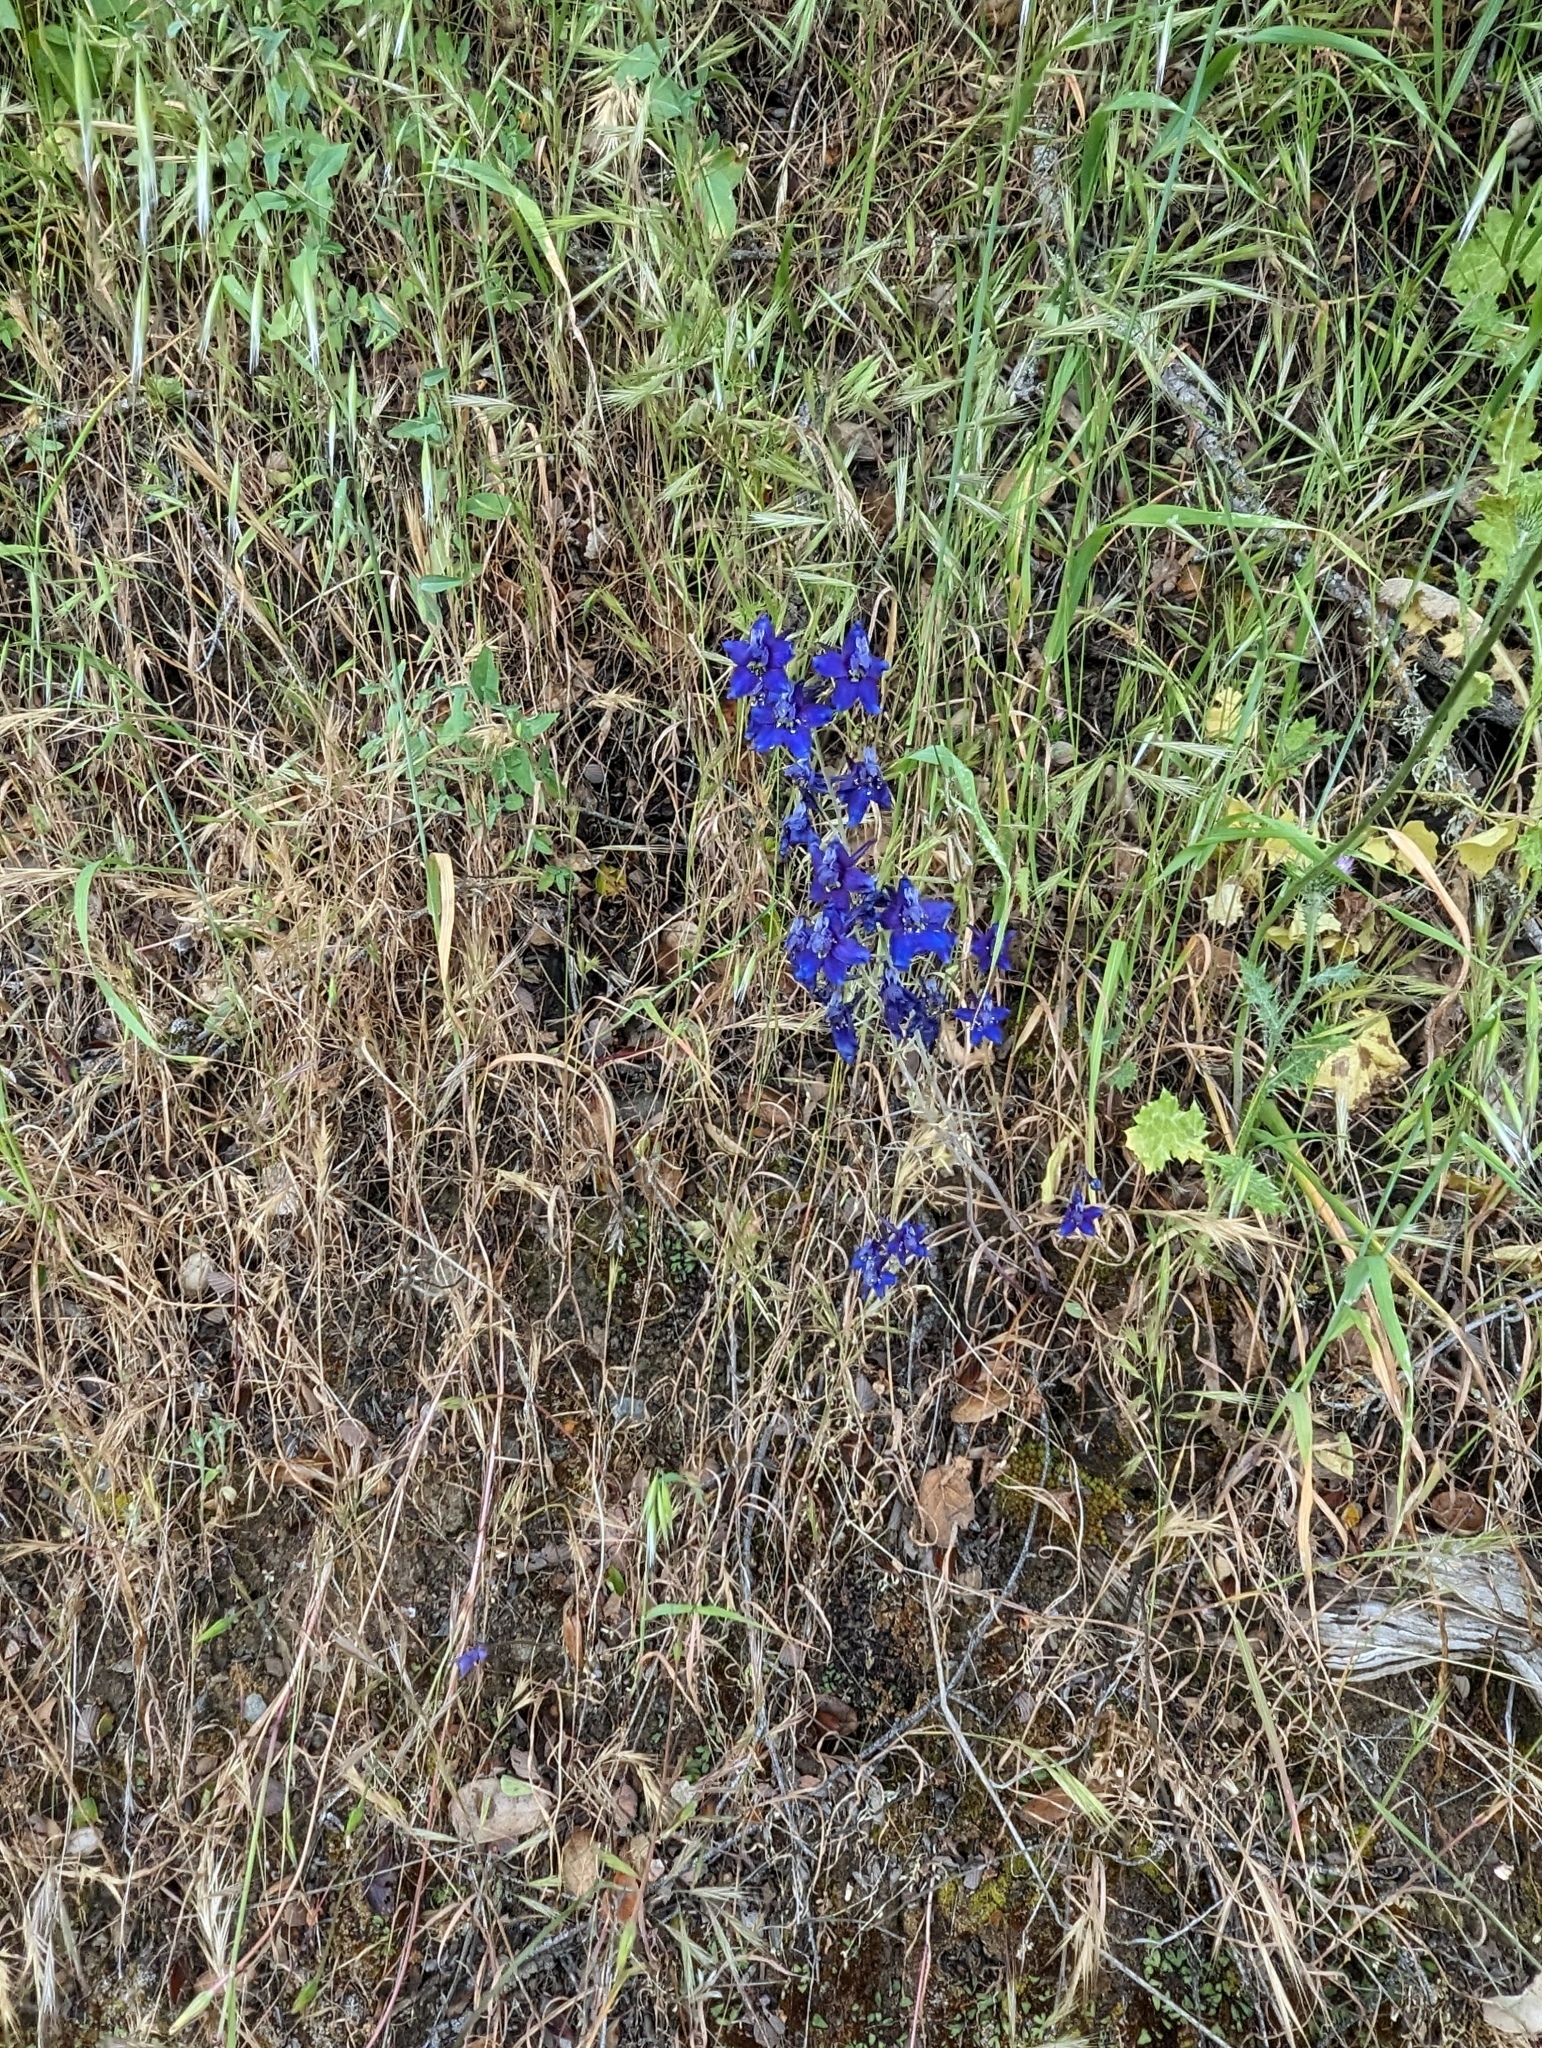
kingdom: Plantae
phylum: Tracheophyta
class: Magnoliopsida
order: Ranunculales
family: Ranunculaceae
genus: Delphinium
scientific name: Delphinium patens
